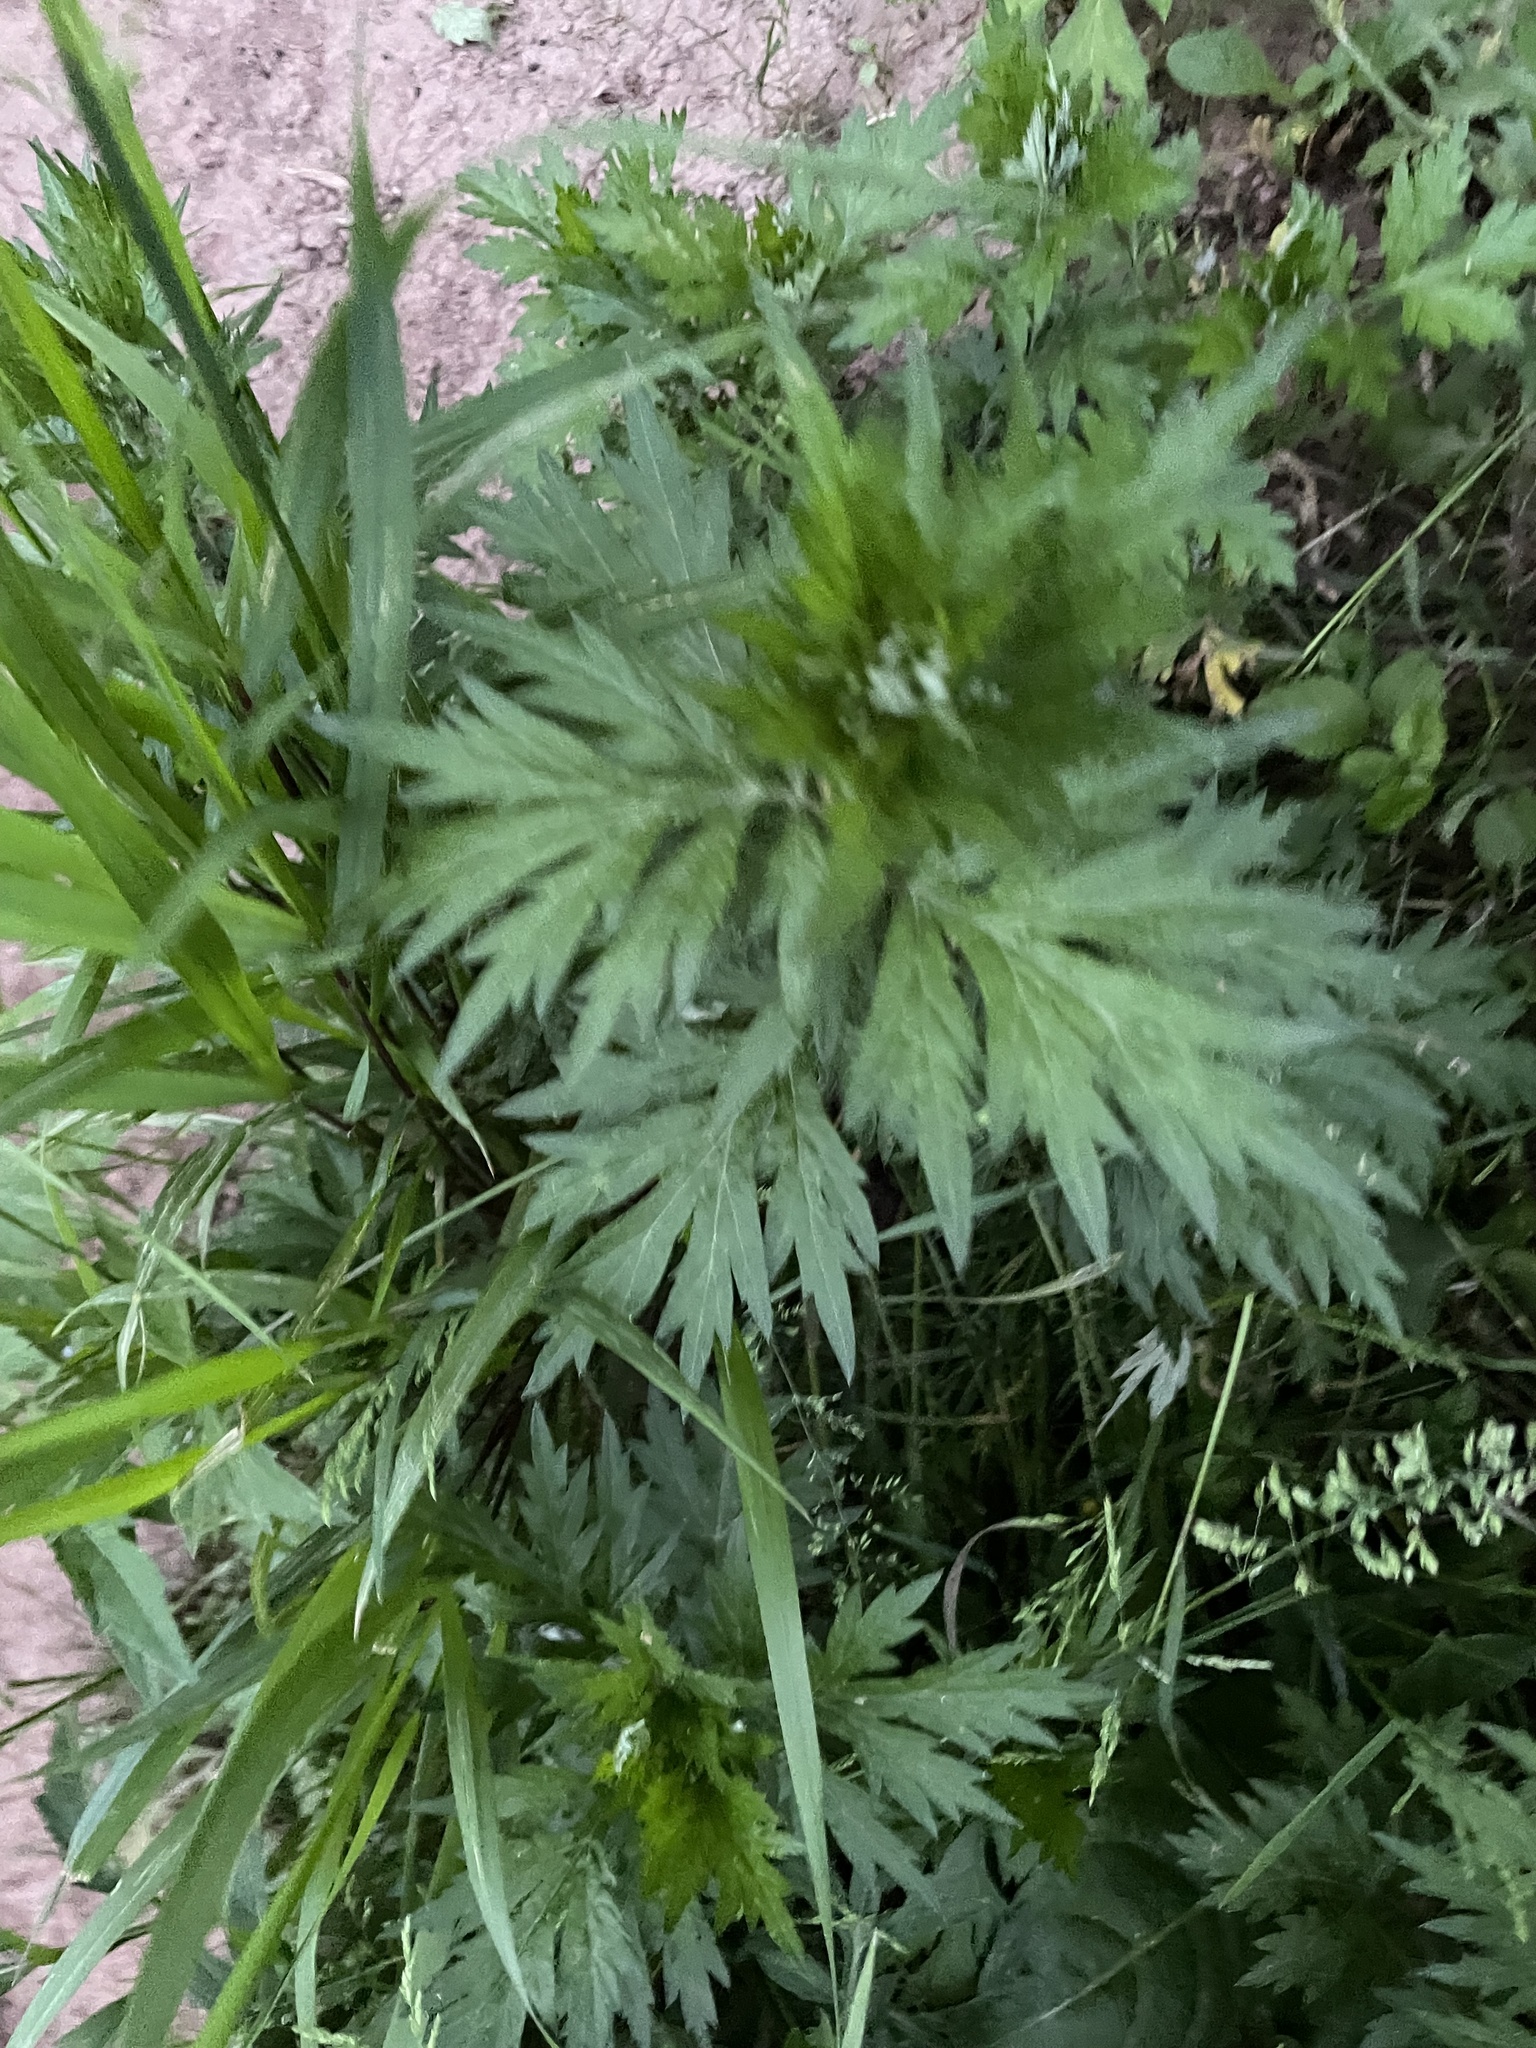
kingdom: Plantae
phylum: Tracheophyta
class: Magnoliopsida
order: Asterales
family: Asteraceae
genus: Artemisia
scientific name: Artemisia vulgaris
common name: Mugwort
